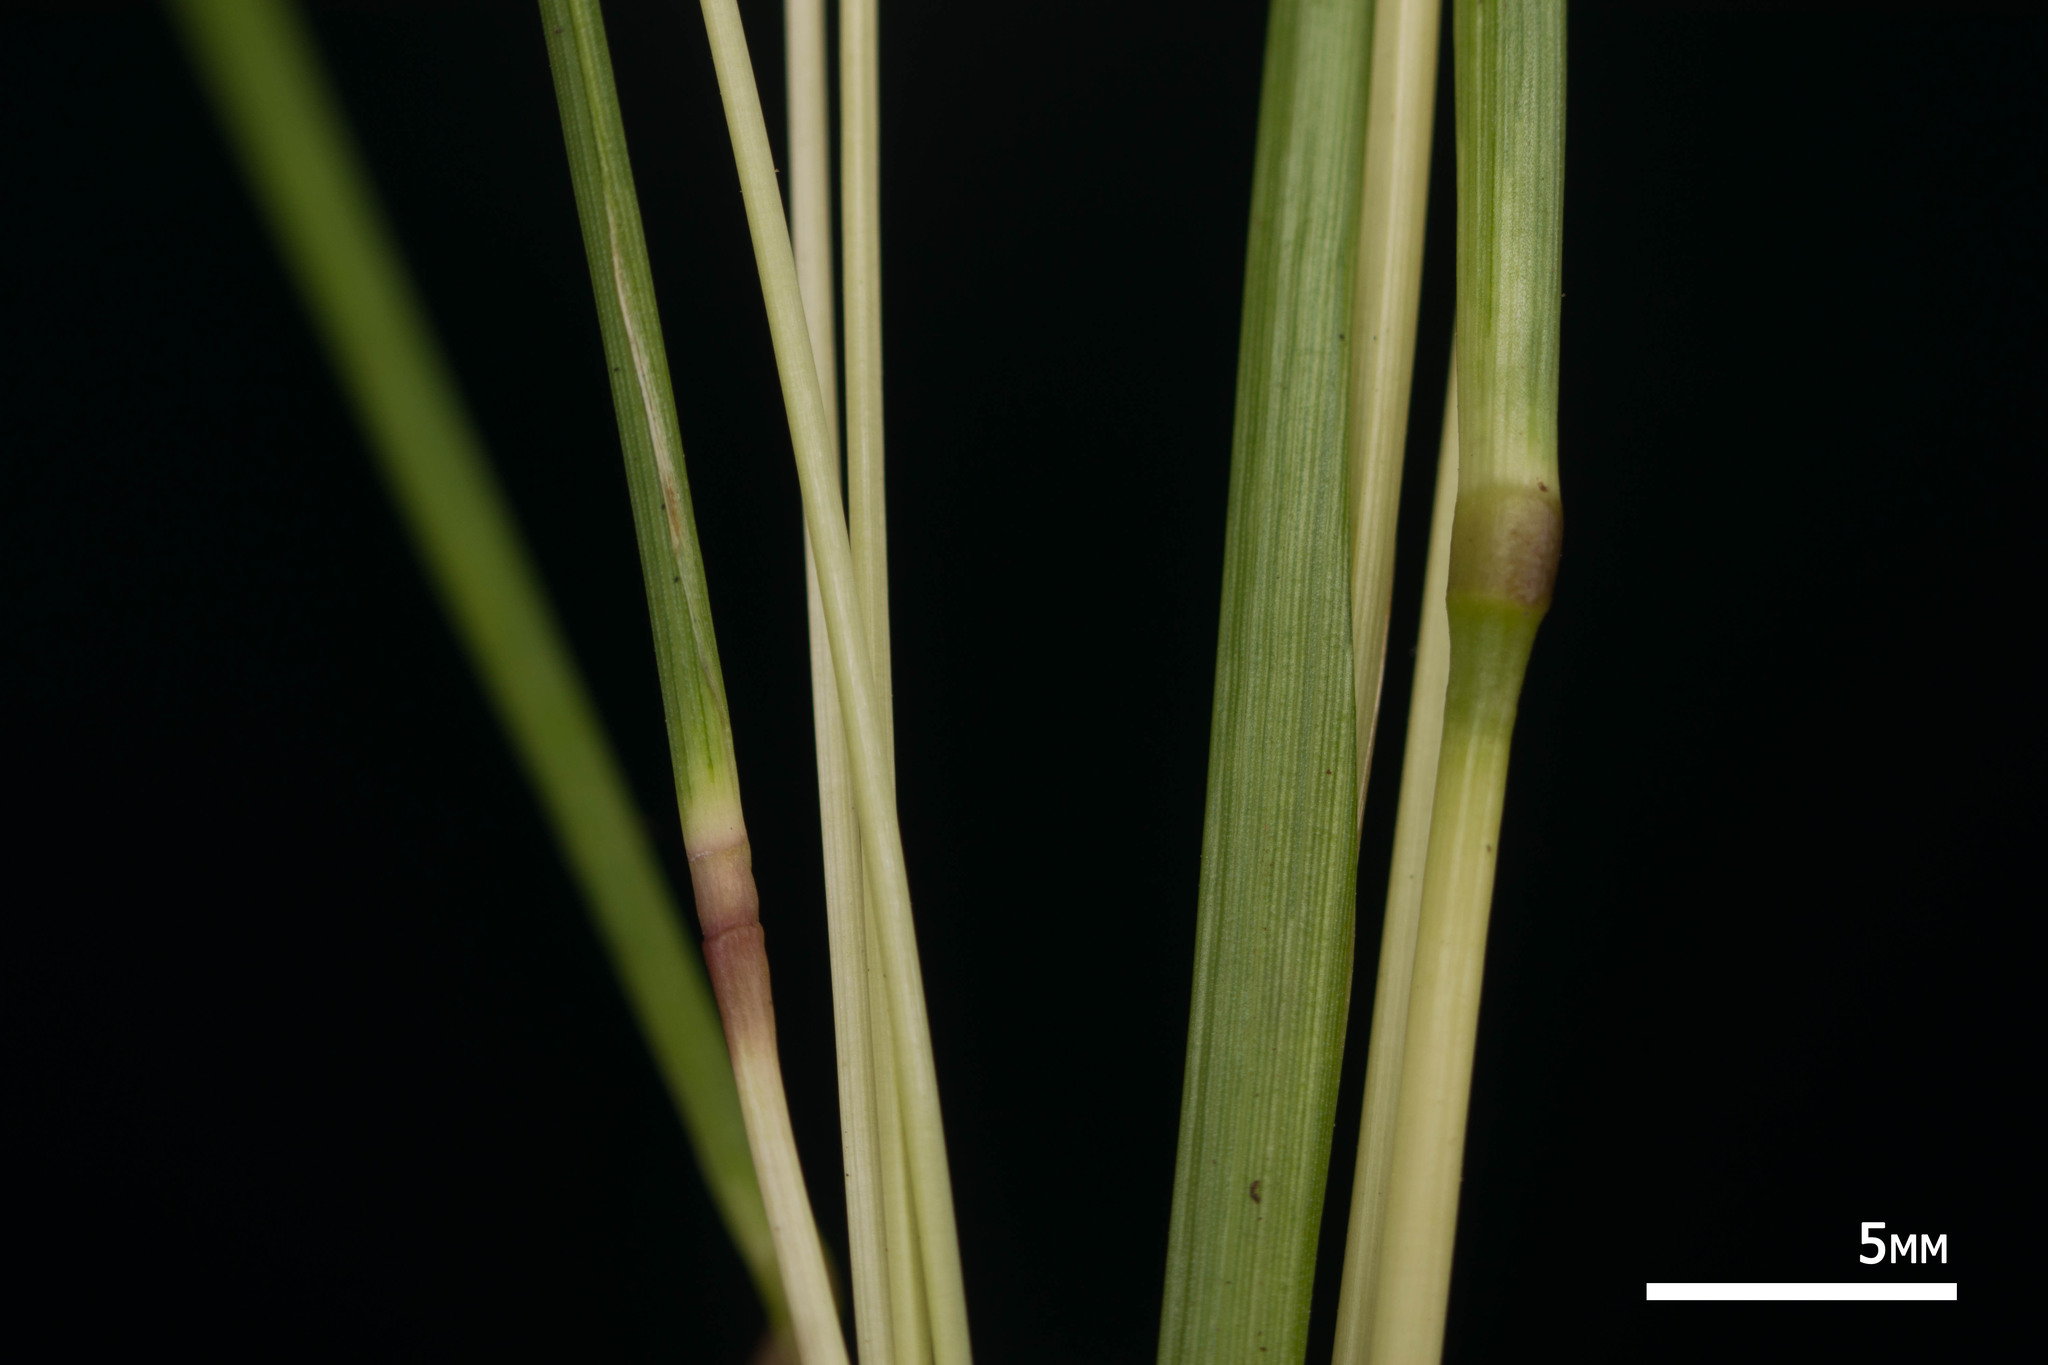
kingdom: Plantae
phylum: Tracheophyta
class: Liliopsida
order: Poales
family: Poaceae
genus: Bothriochloa
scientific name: Bothriochloa pertusa
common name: Pitted beardgrass
